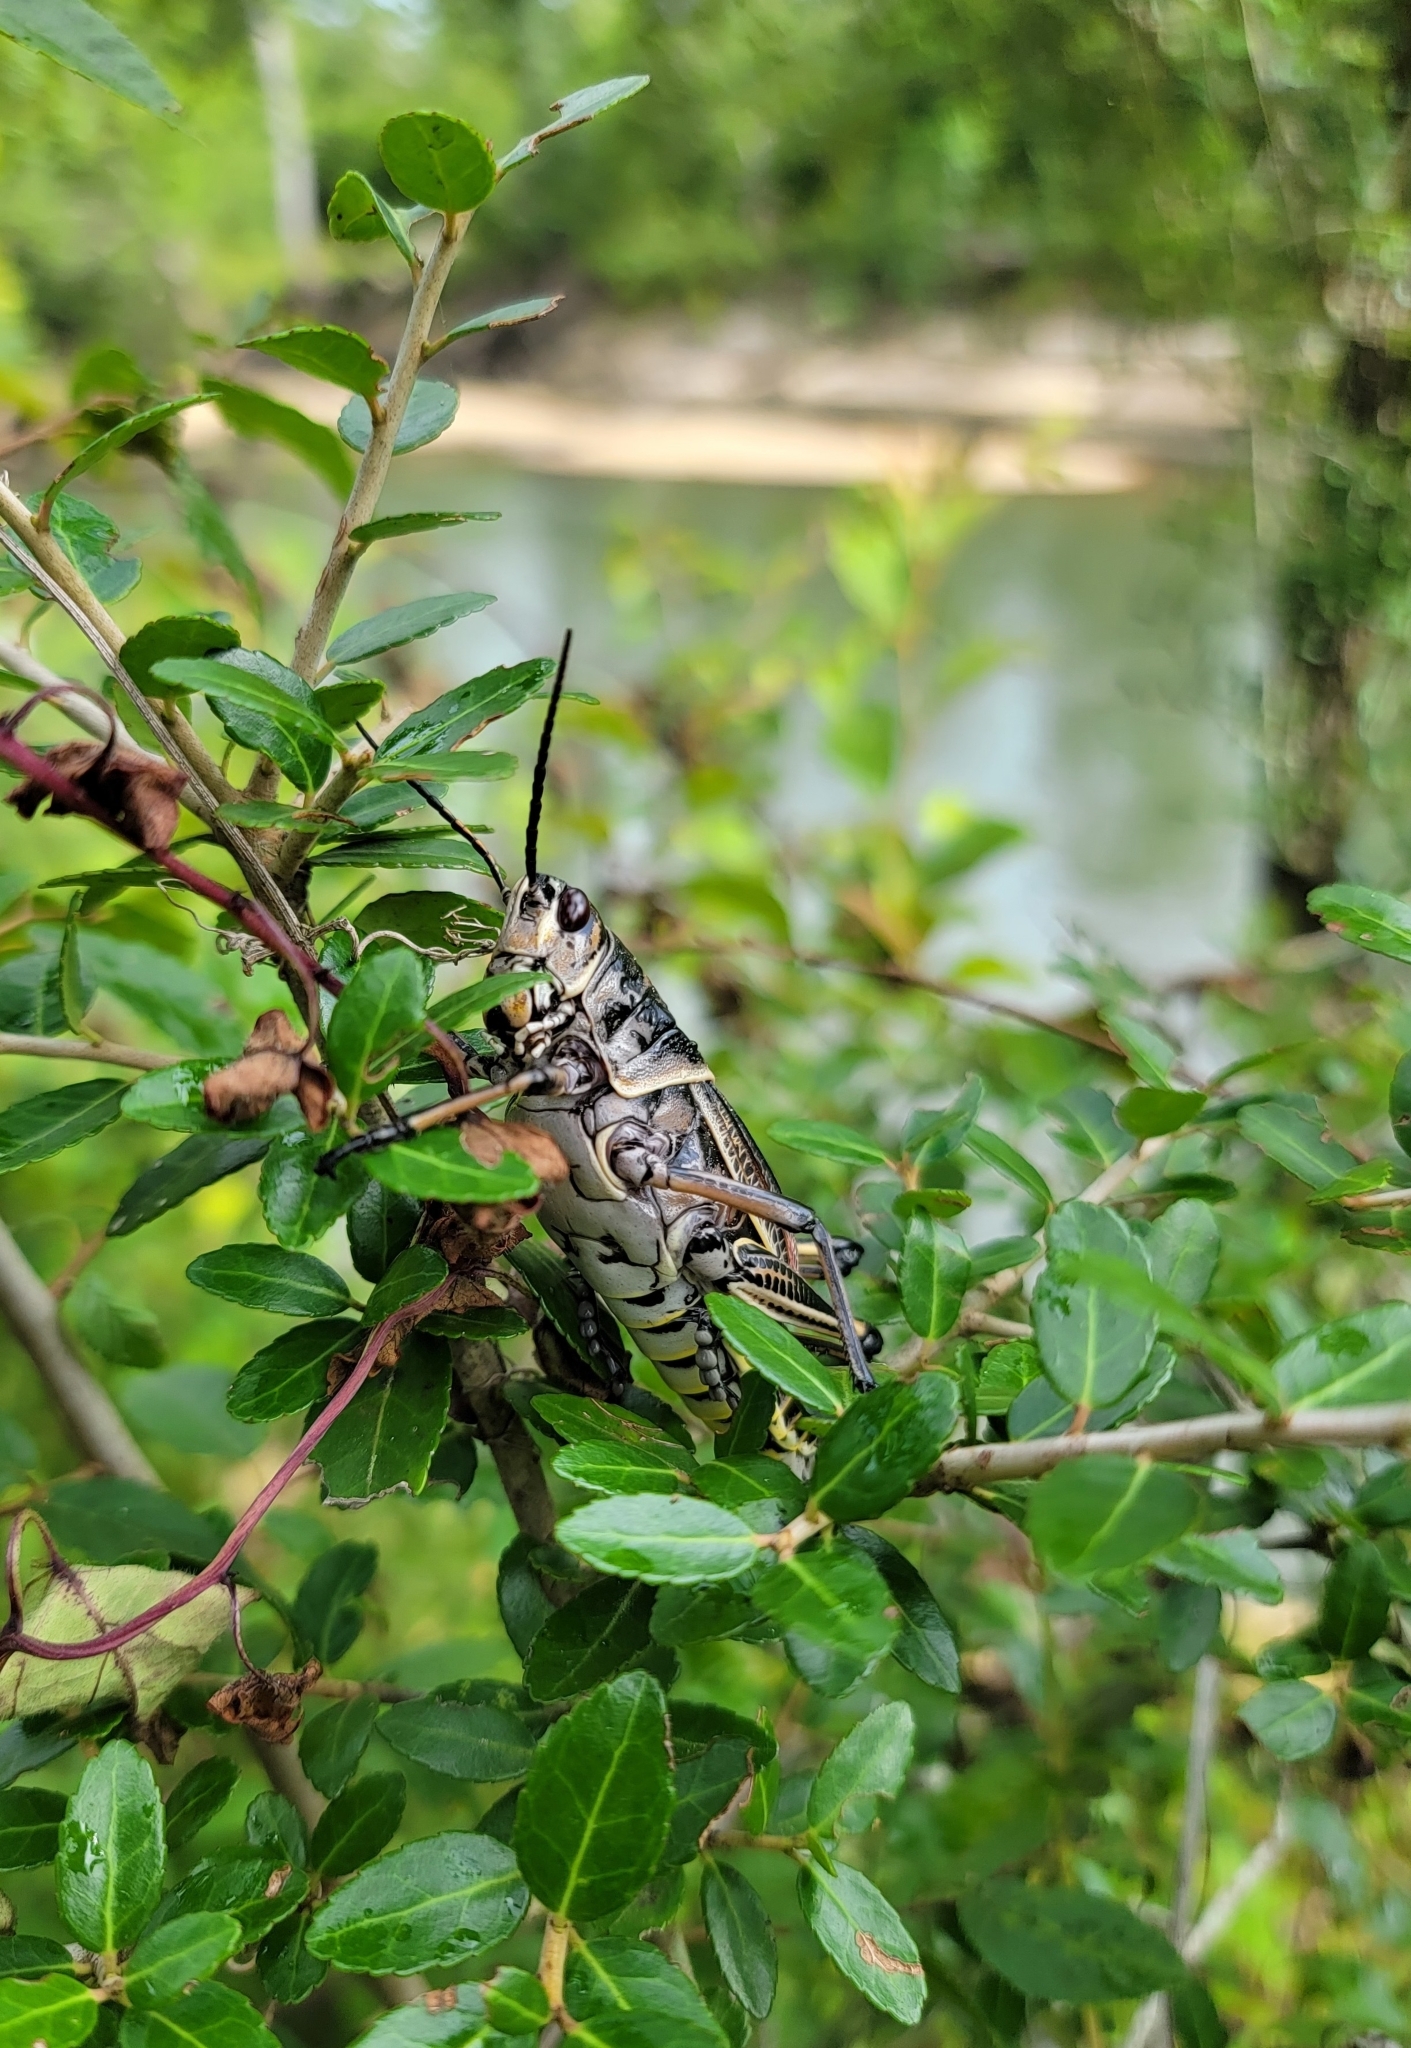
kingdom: Animalia
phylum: Arthropoda
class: Insecta
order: Orthoptera
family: Romaleidae
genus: Romalea
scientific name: Romalea microptera
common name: Eastern lubber grasshopper
